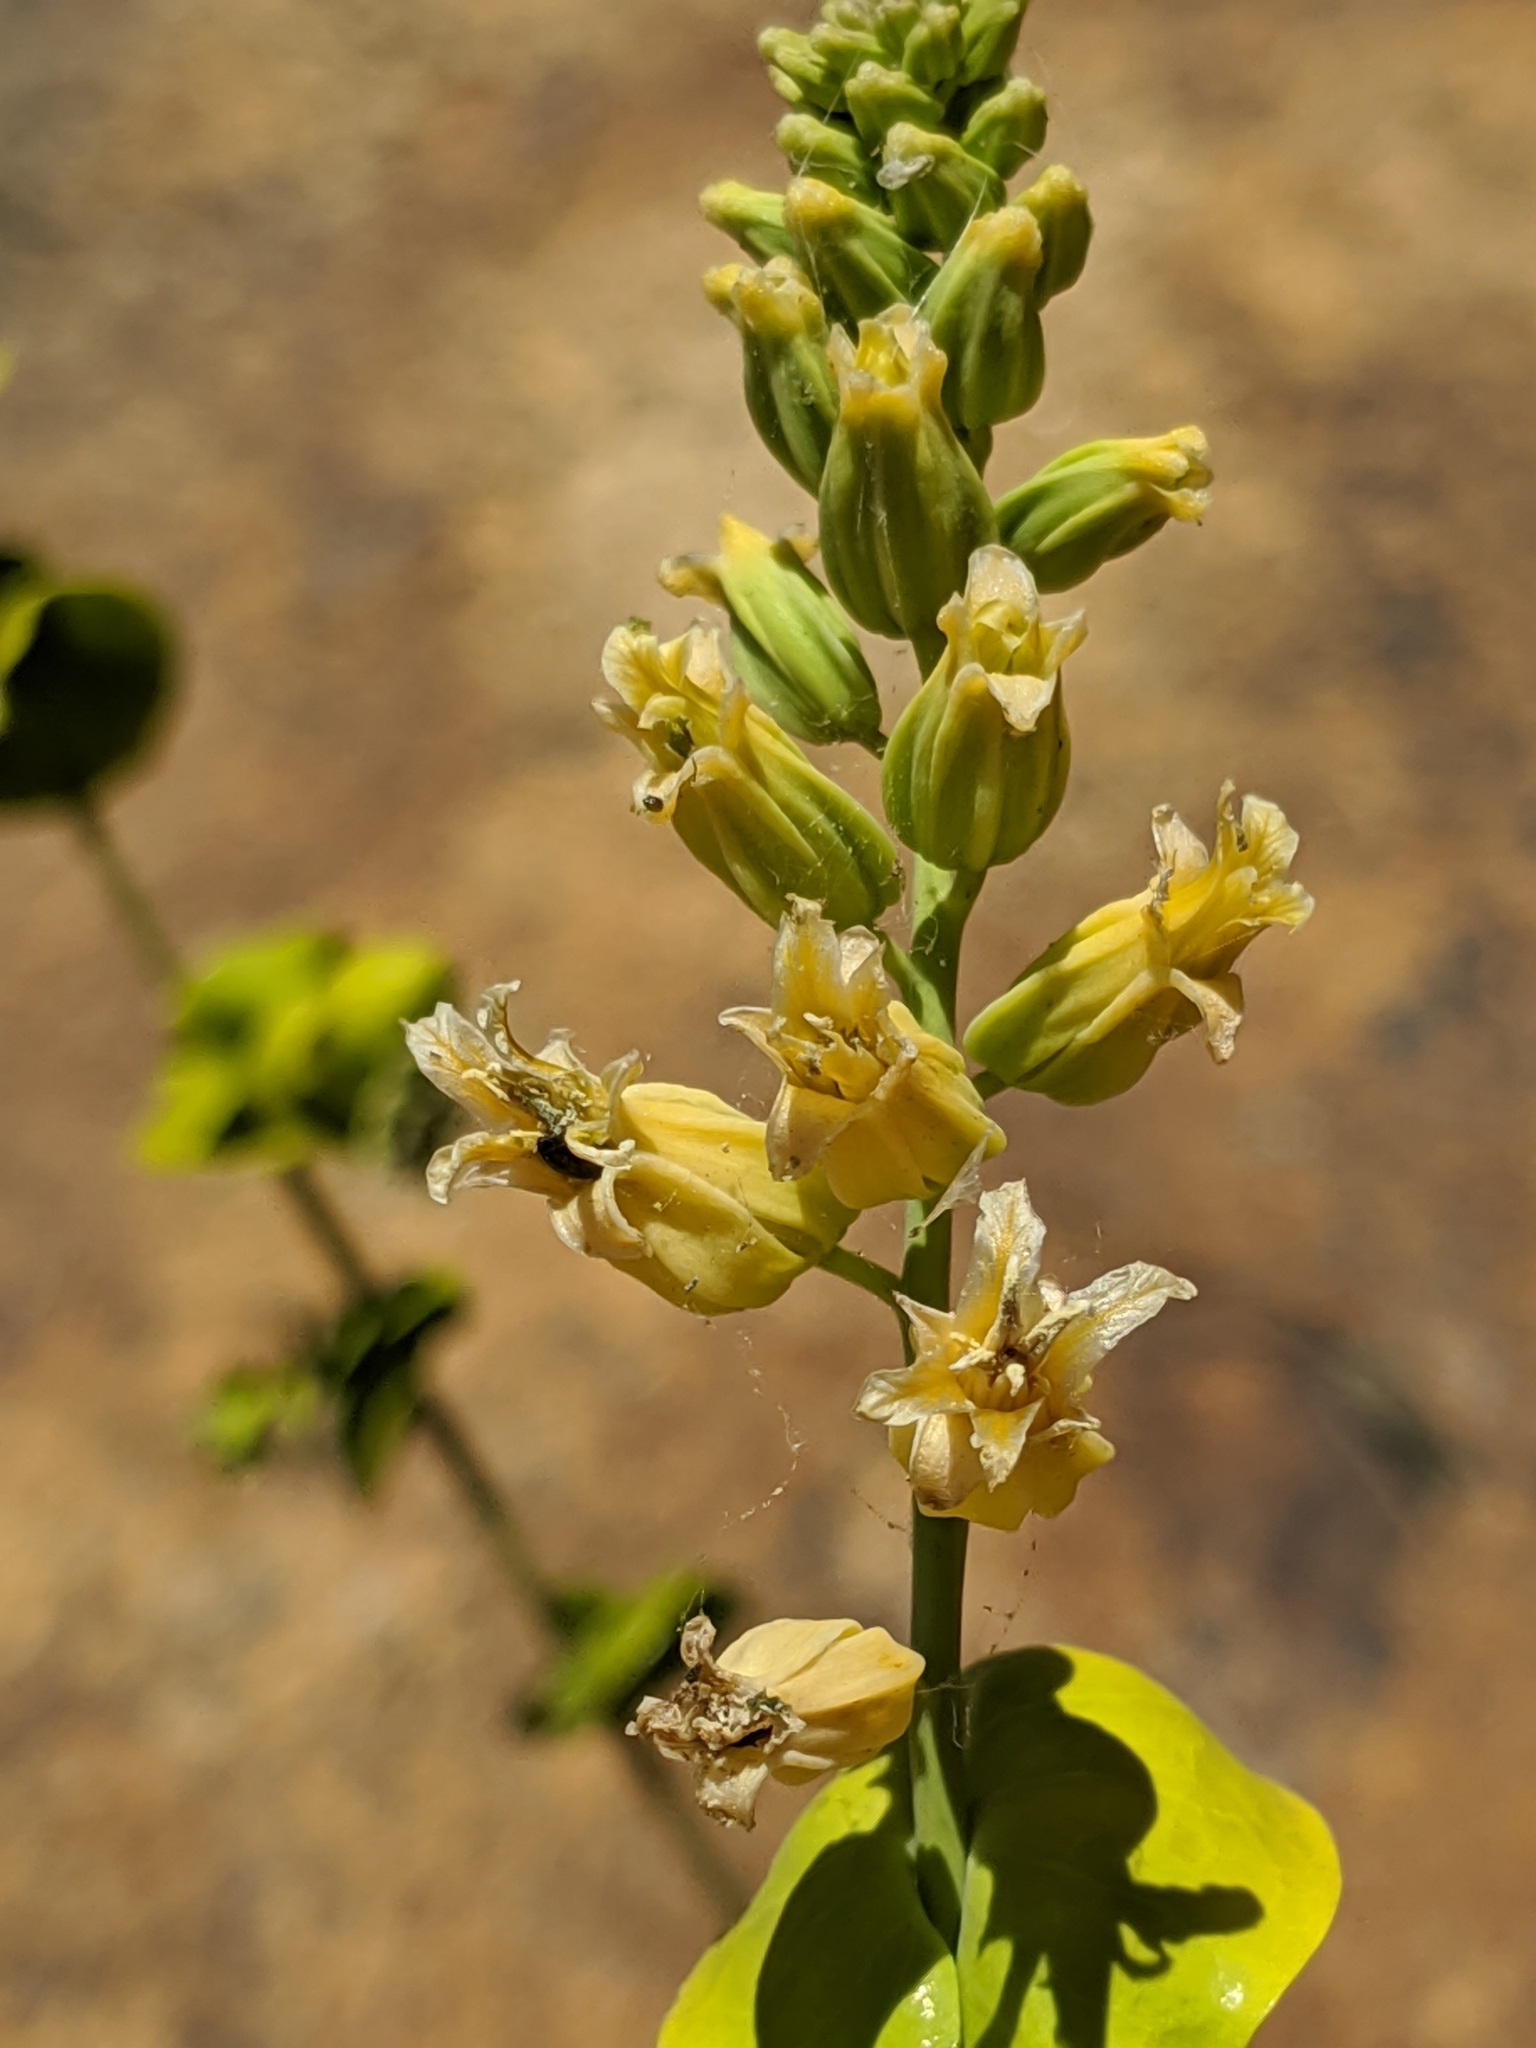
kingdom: Plantae
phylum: Tracheophyta
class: Magnoliopsida
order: Brassicales
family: Brassicaceae
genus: Streptanthus
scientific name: Streptanthus tortuosus
